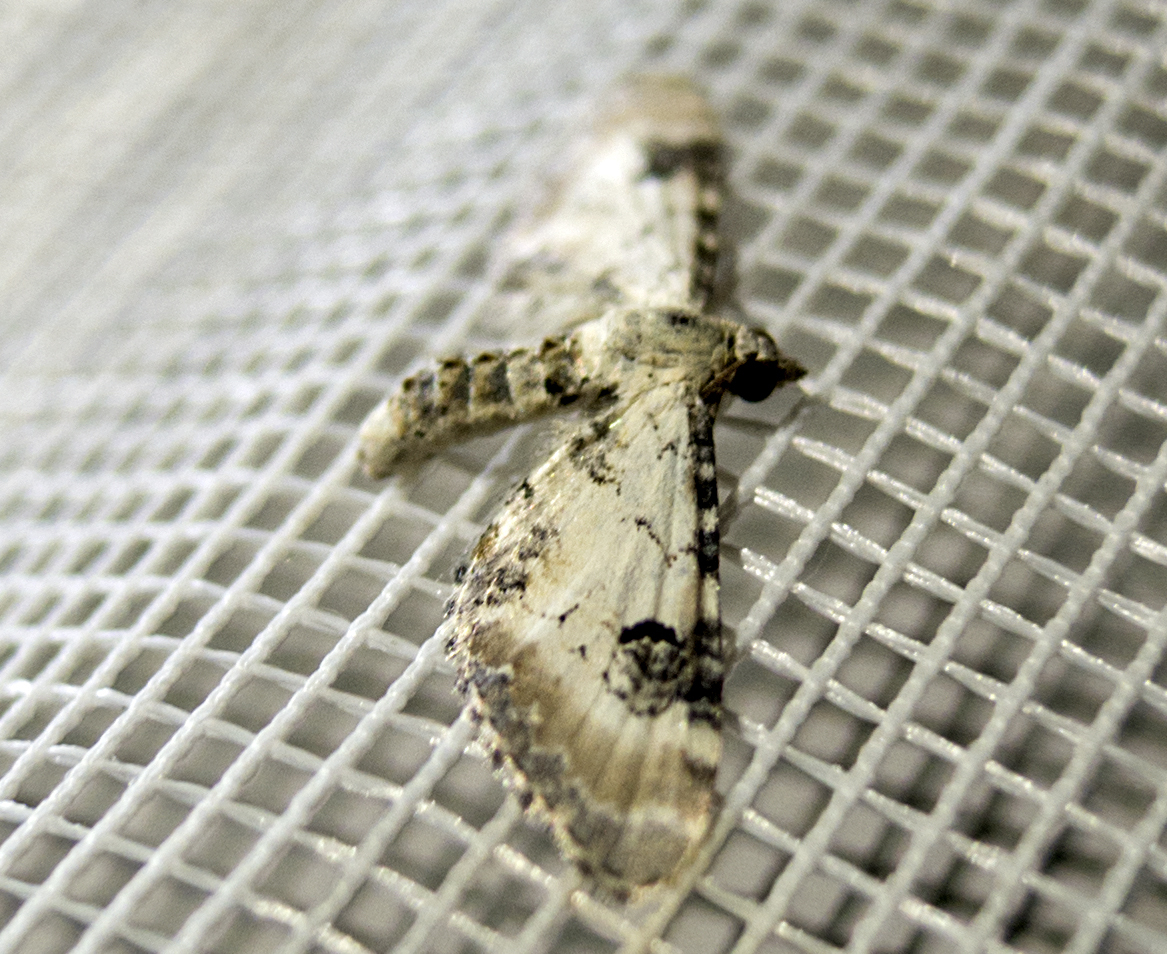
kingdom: Animalia
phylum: Arthropoda
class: Insecta
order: Lepidoptera
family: Geometridae
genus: Eupithecia
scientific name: Eupithecia centaureata
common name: Lime-speck pug
